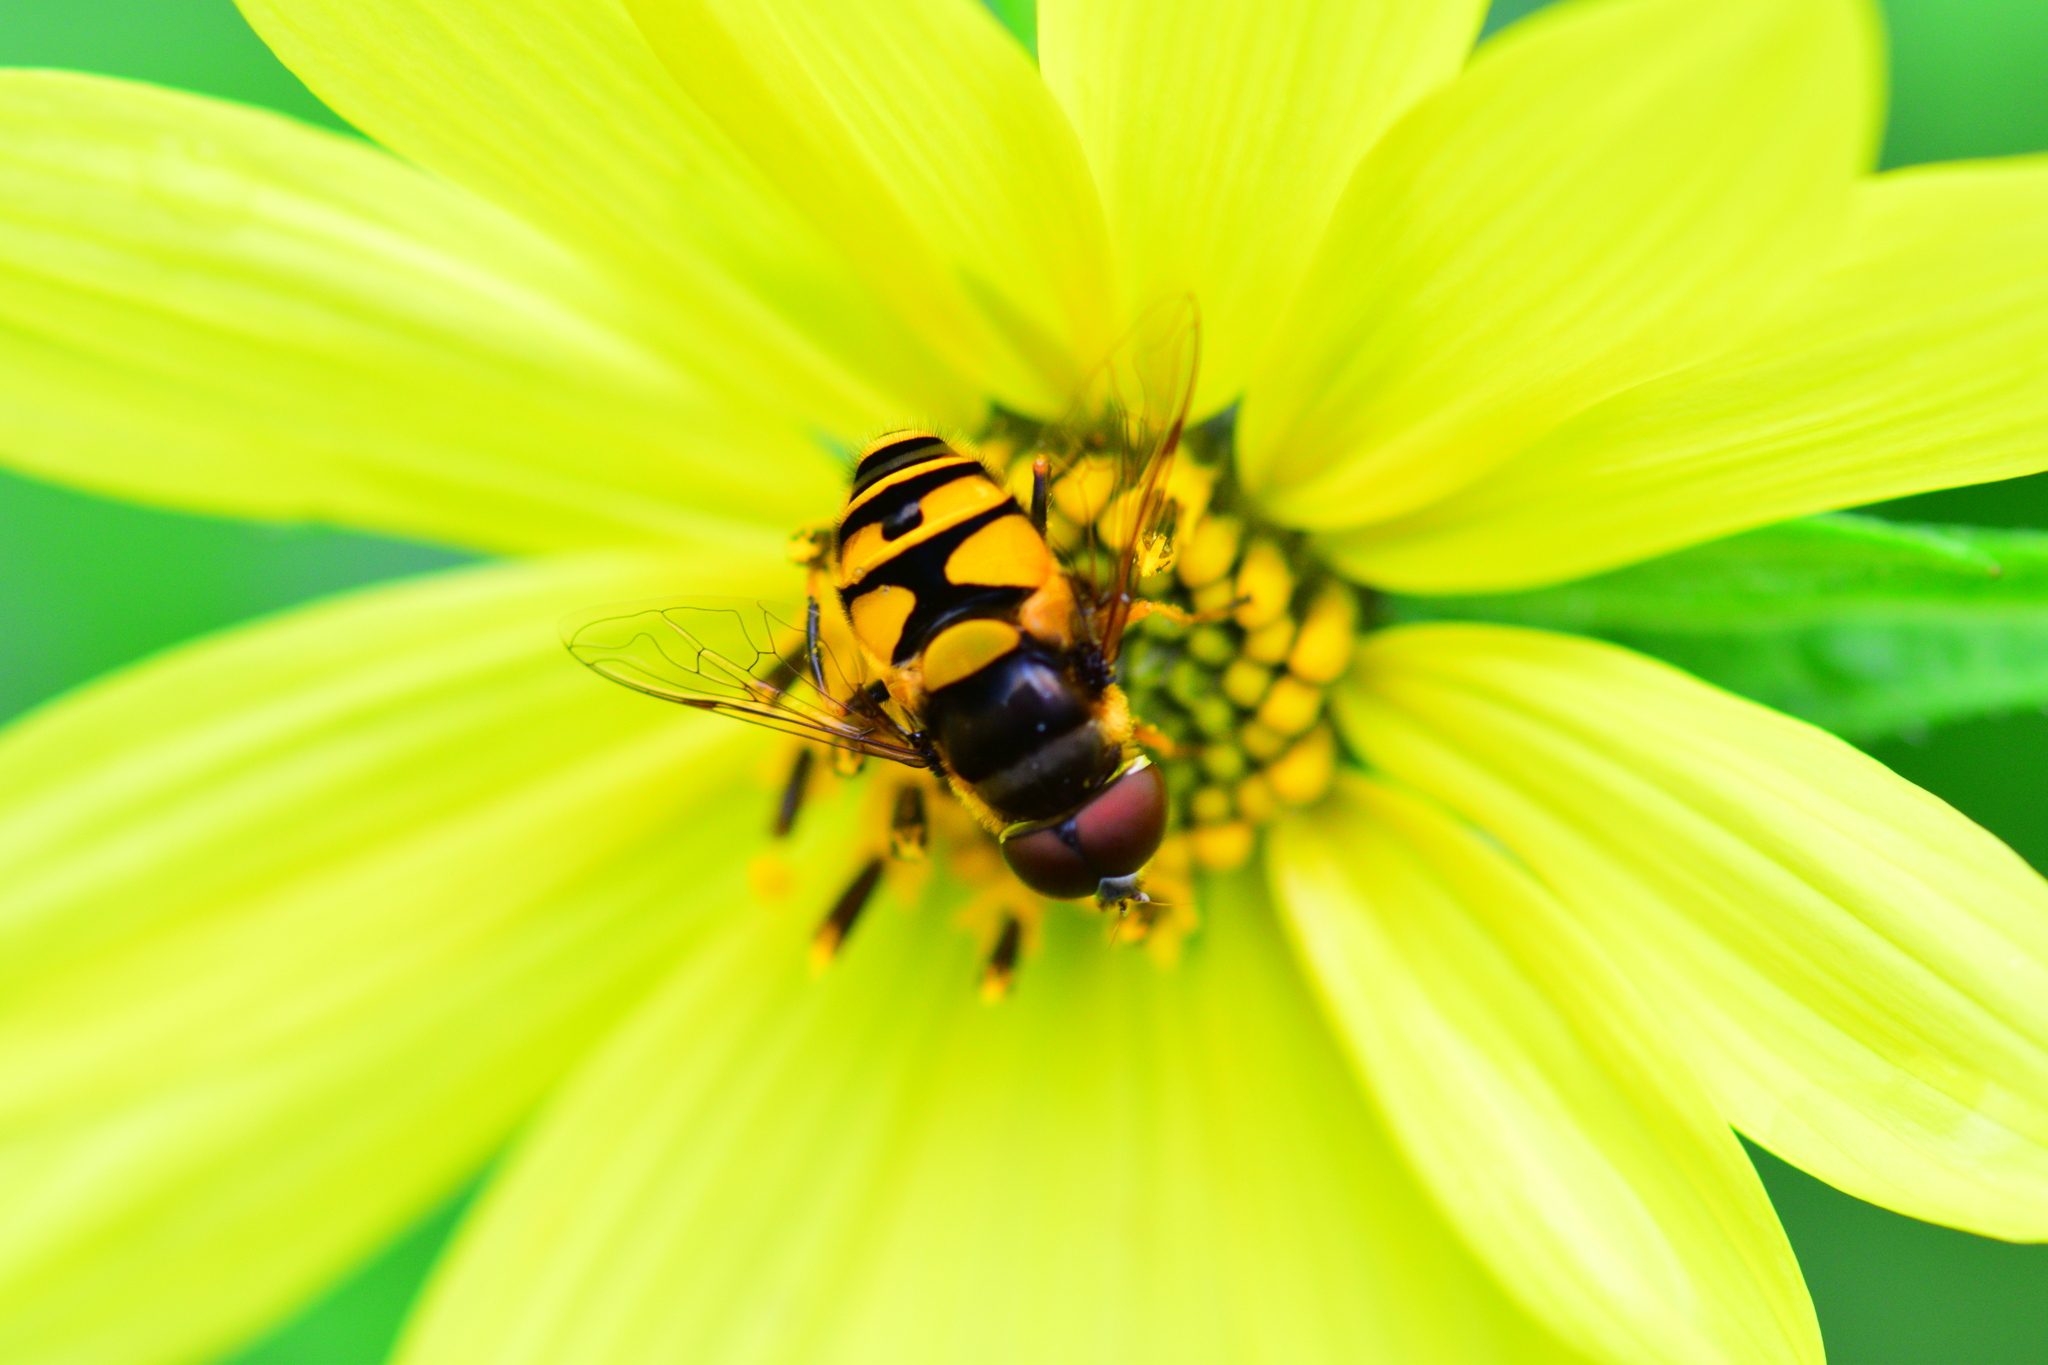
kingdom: Animalia
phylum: Arthropoda
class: Insecta
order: Diptera
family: Syrphidae
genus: Eristalis
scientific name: Eristalis transversa
